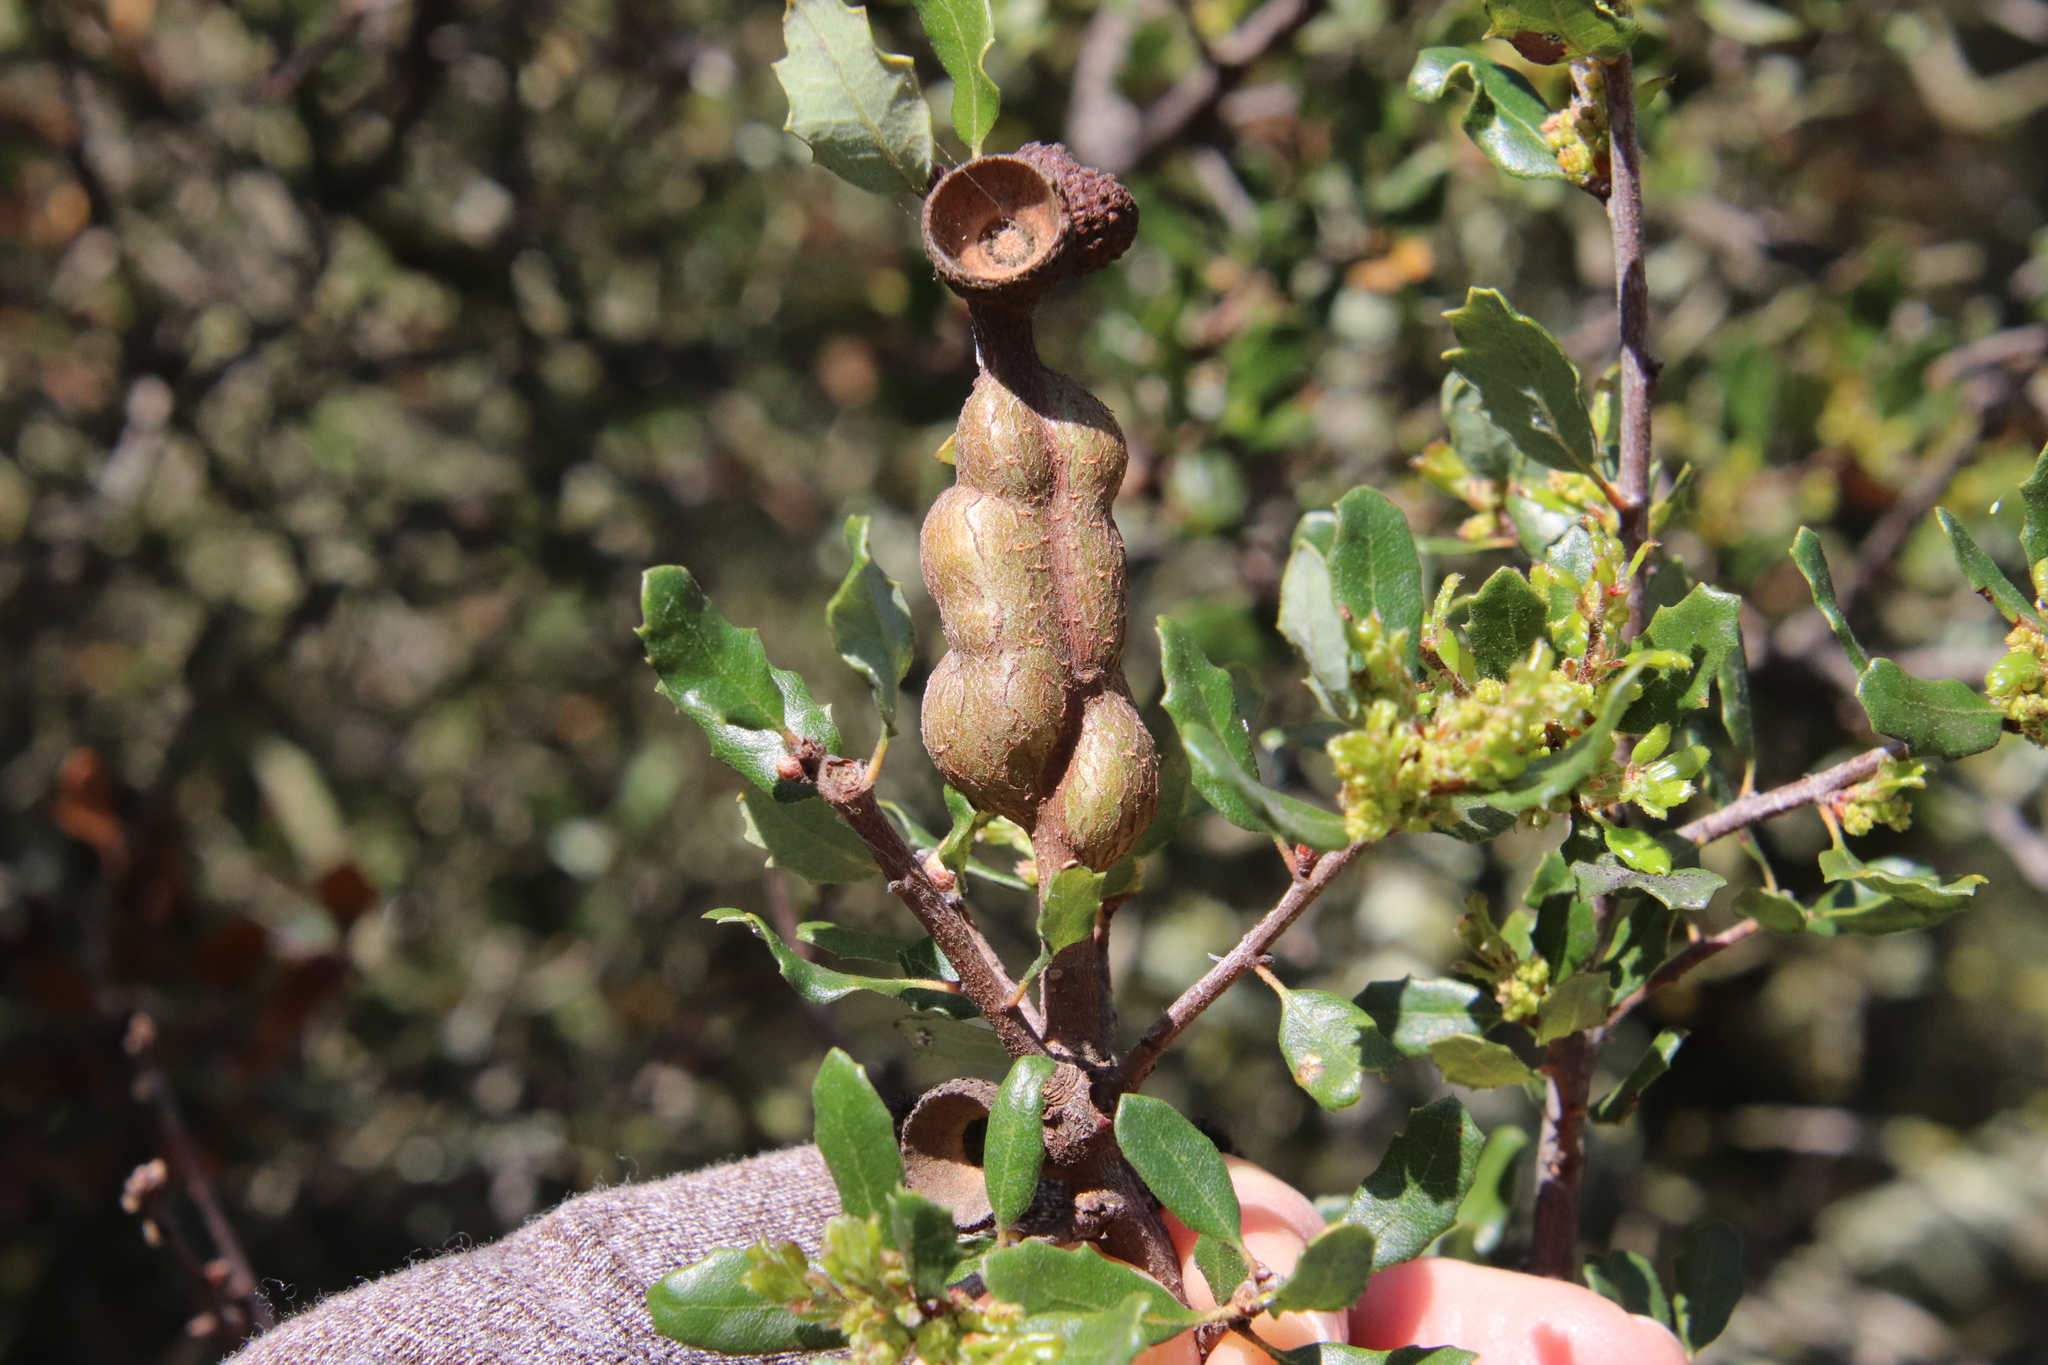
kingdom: Animalia
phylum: Arthropoda
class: Insecta
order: Hymenoptera
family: Cynipidae
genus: Andricus
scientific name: Andricus
